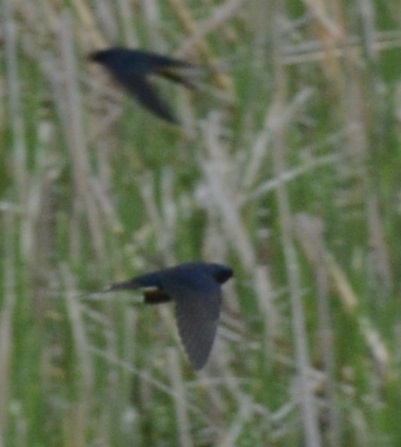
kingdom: Animalia
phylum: Chordata
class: Aves
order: Passeriformes
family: Hirundinidae
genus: Hirundo
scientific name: Hirundo rustica
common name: Barn swallow
